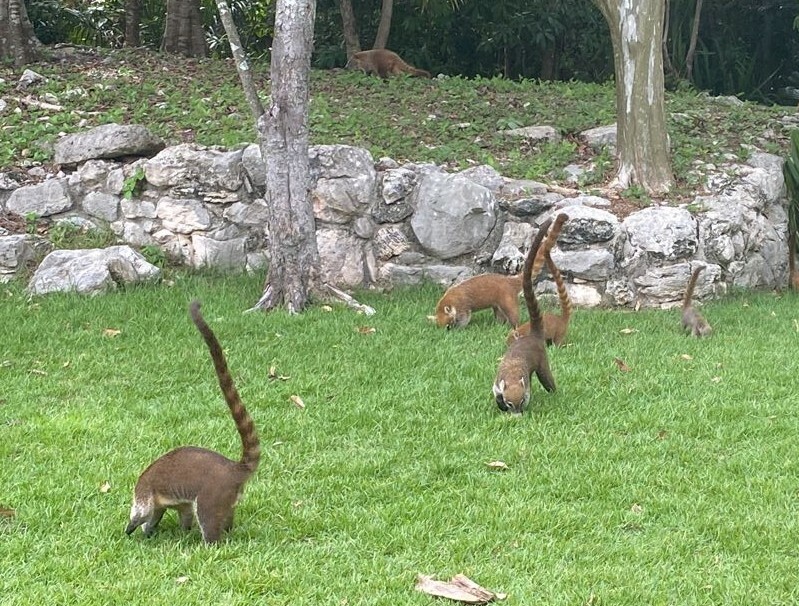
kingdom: Animalia
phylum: Chordata
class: Mammalia
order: Carnivora
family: Procyonidae
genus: Nasua
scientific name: Nasua narica
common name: White-nosed coati
